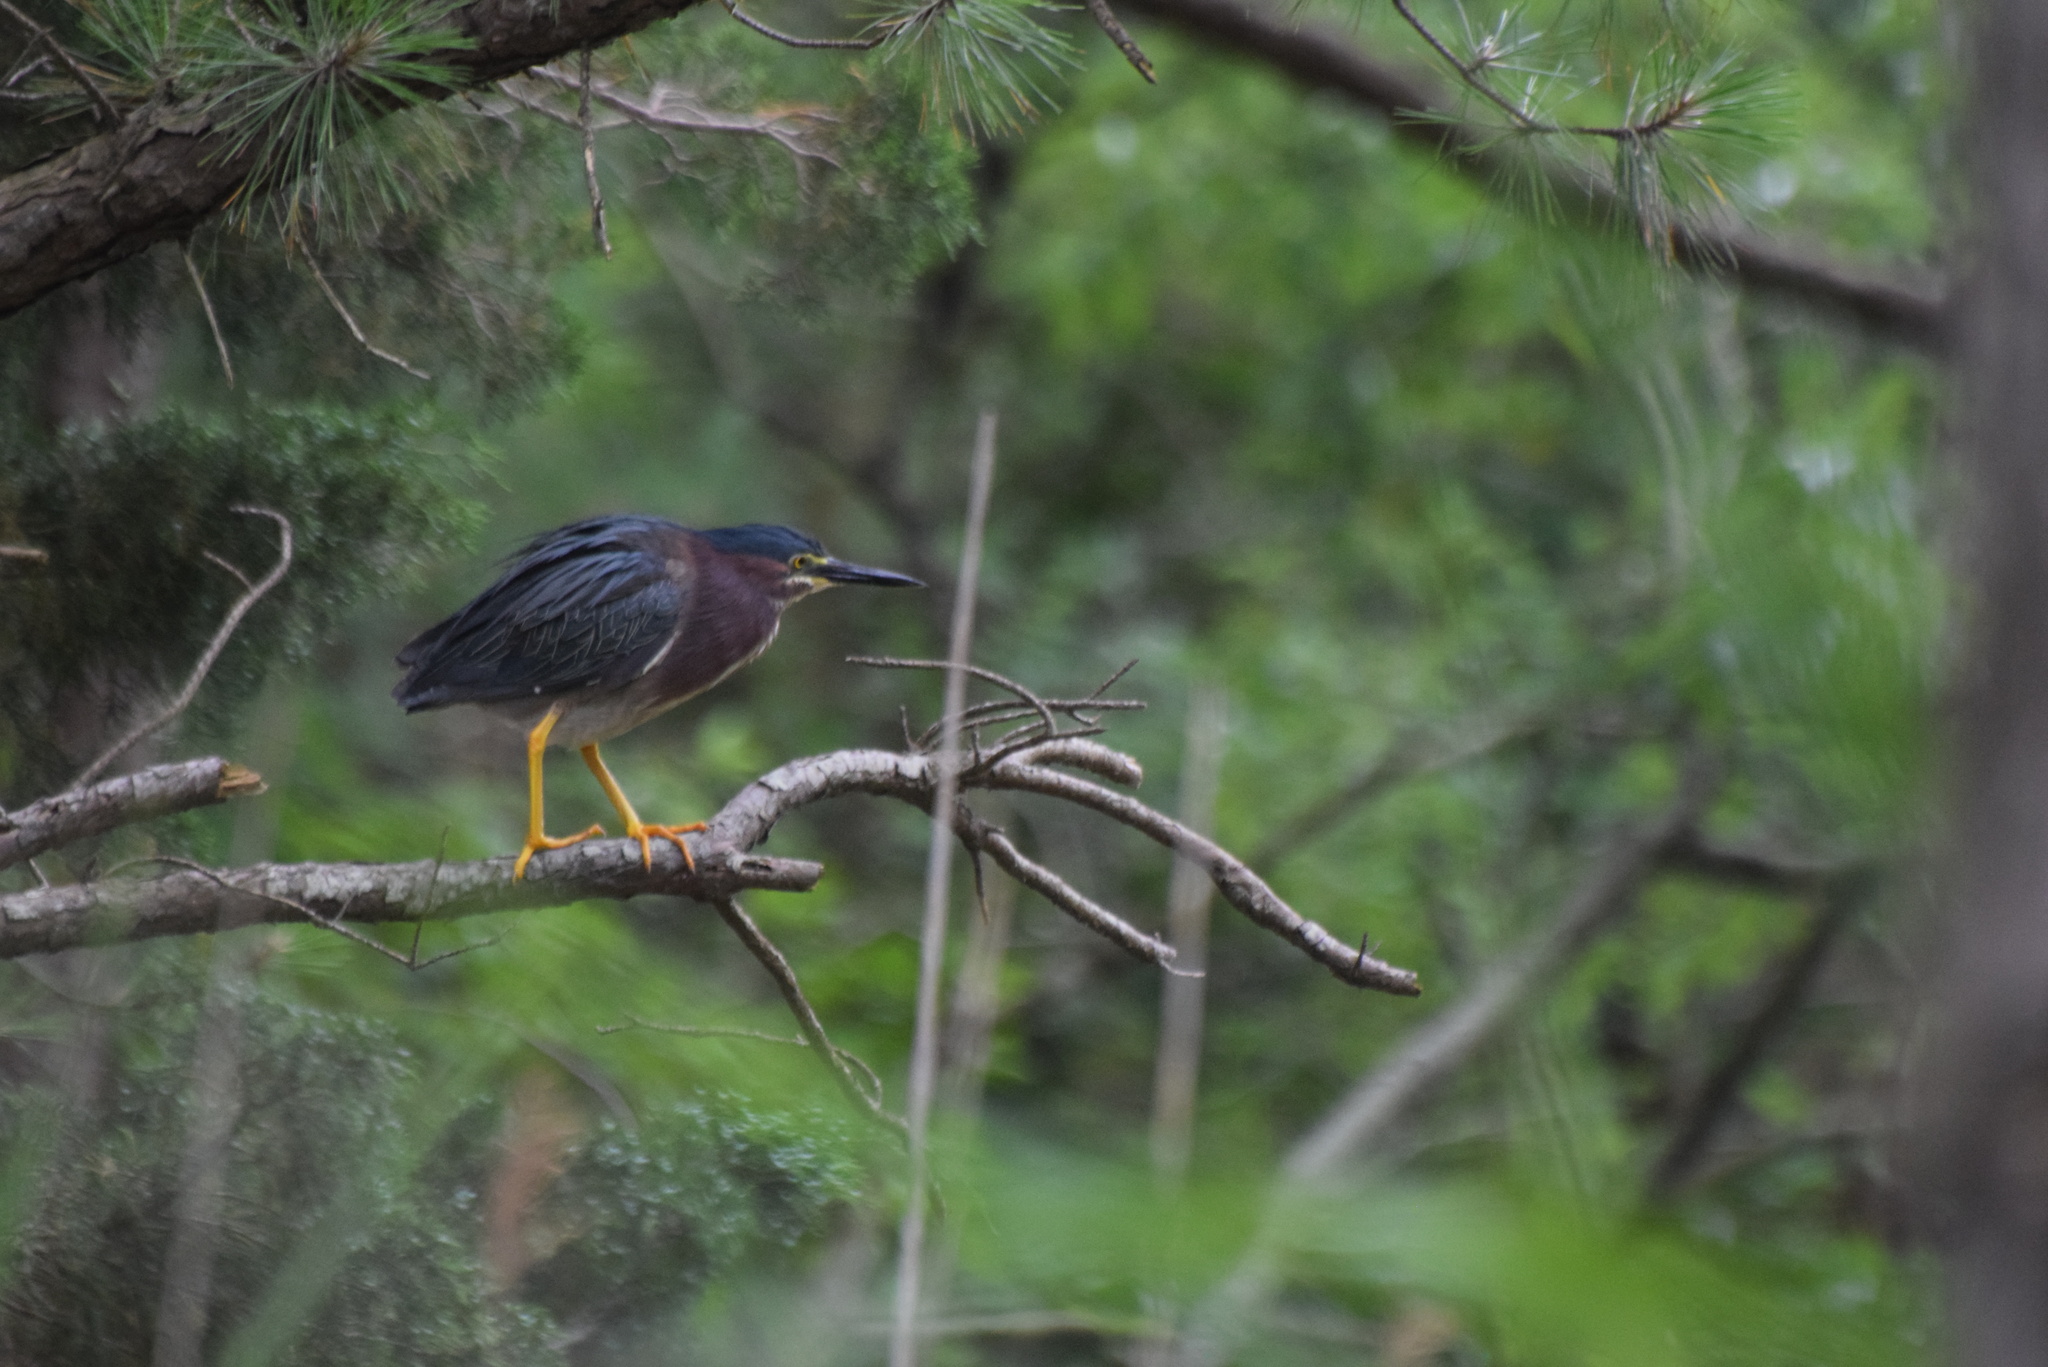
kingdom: Animalia
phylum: Chordata
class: Aves
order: Pelecaniformes
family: Ardeidae
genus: Butorides
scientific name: Butorides virescens
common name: Green heron
